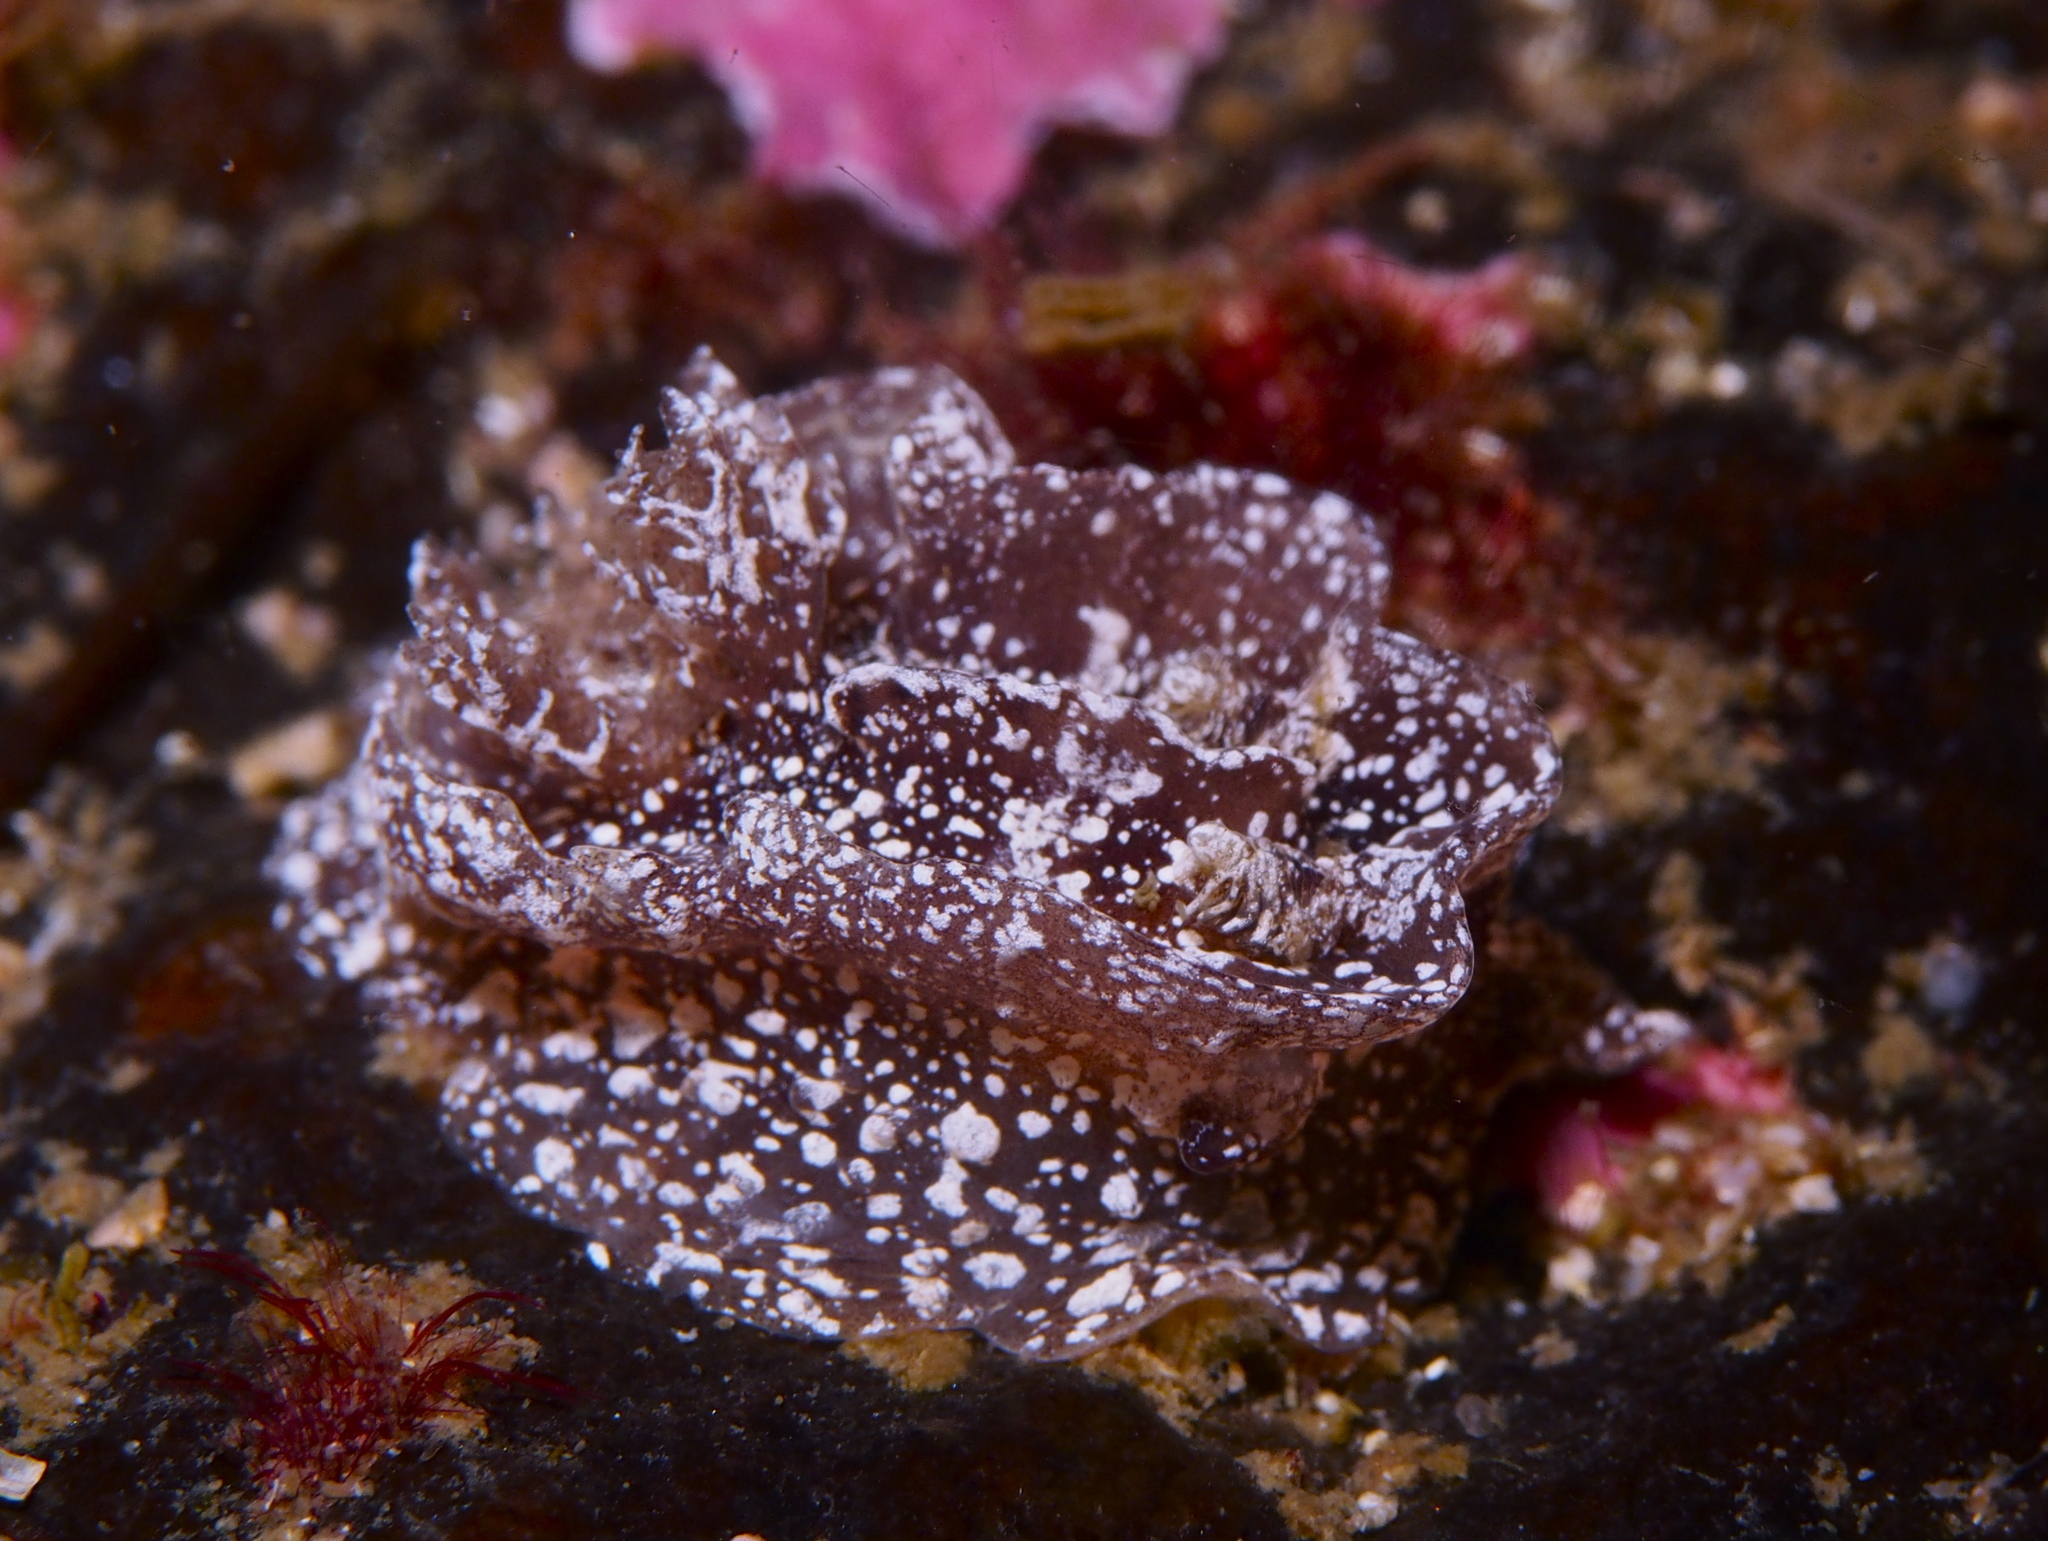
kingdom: Animalia
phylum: Mollusca
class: Gastropoda
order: Nudibranchia
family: Goniodorididae
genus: Pelagella
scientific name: Pelagella castanea
